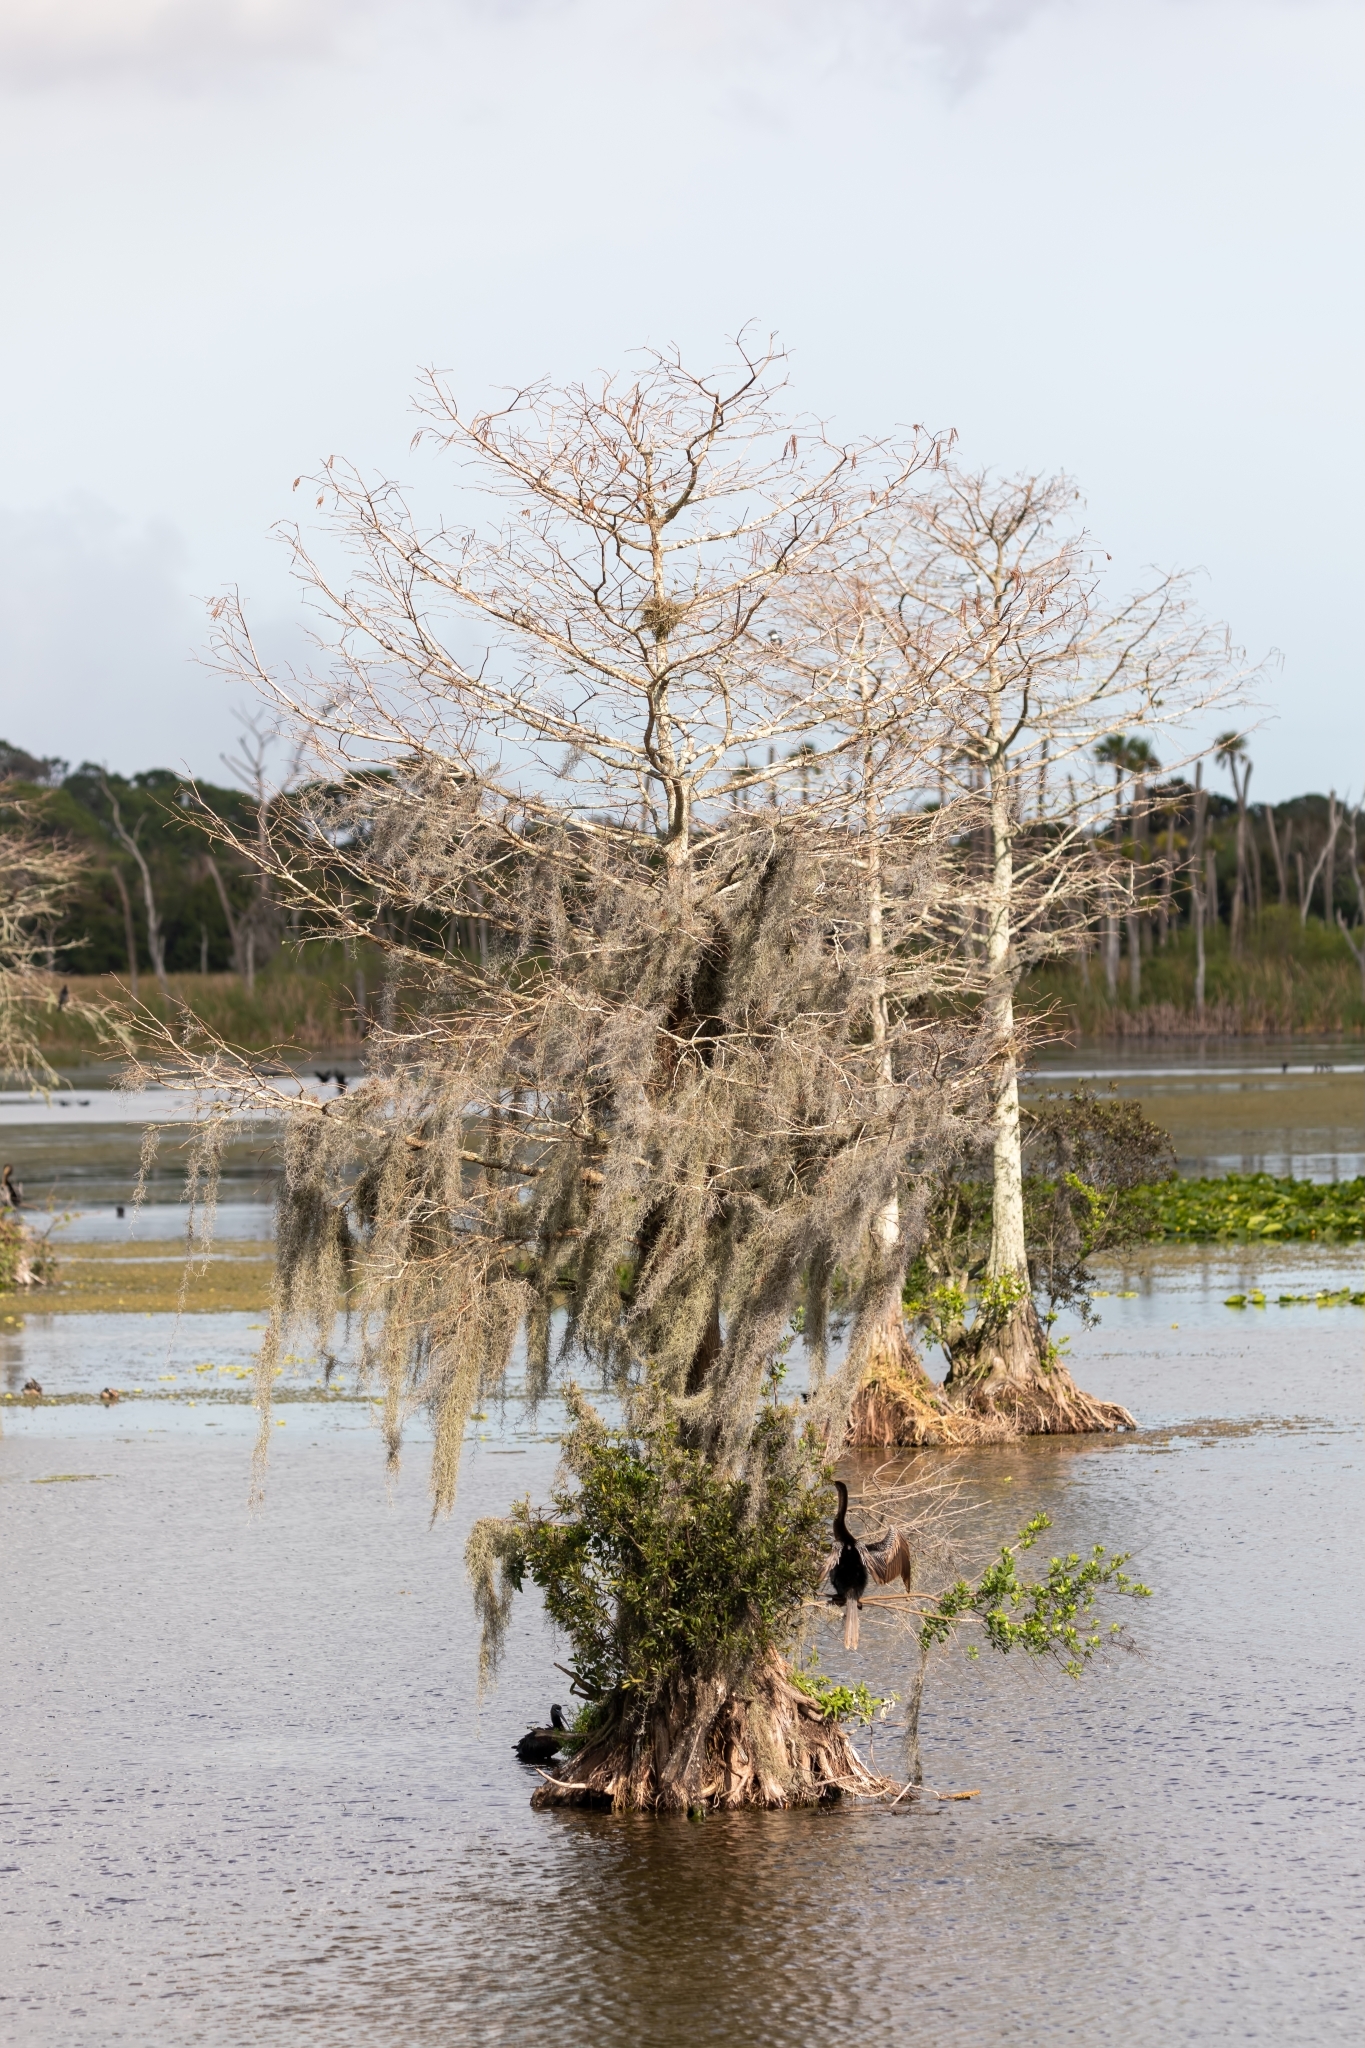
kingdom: Animalia
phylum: Chordata
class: Aves
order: Suliformes
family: Anhingidae
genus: Anhinga
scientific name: Anhinga anhinga
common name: Anhinga
